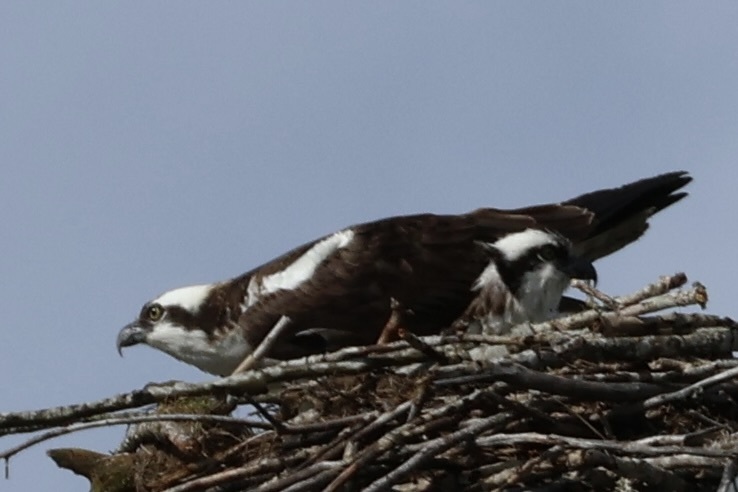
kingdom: Animalia
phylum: Chordata
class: Aves
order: Accipitriformes
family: Pandionidae
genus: Pandion
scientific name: Pandion haliaetus
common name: Osprey
